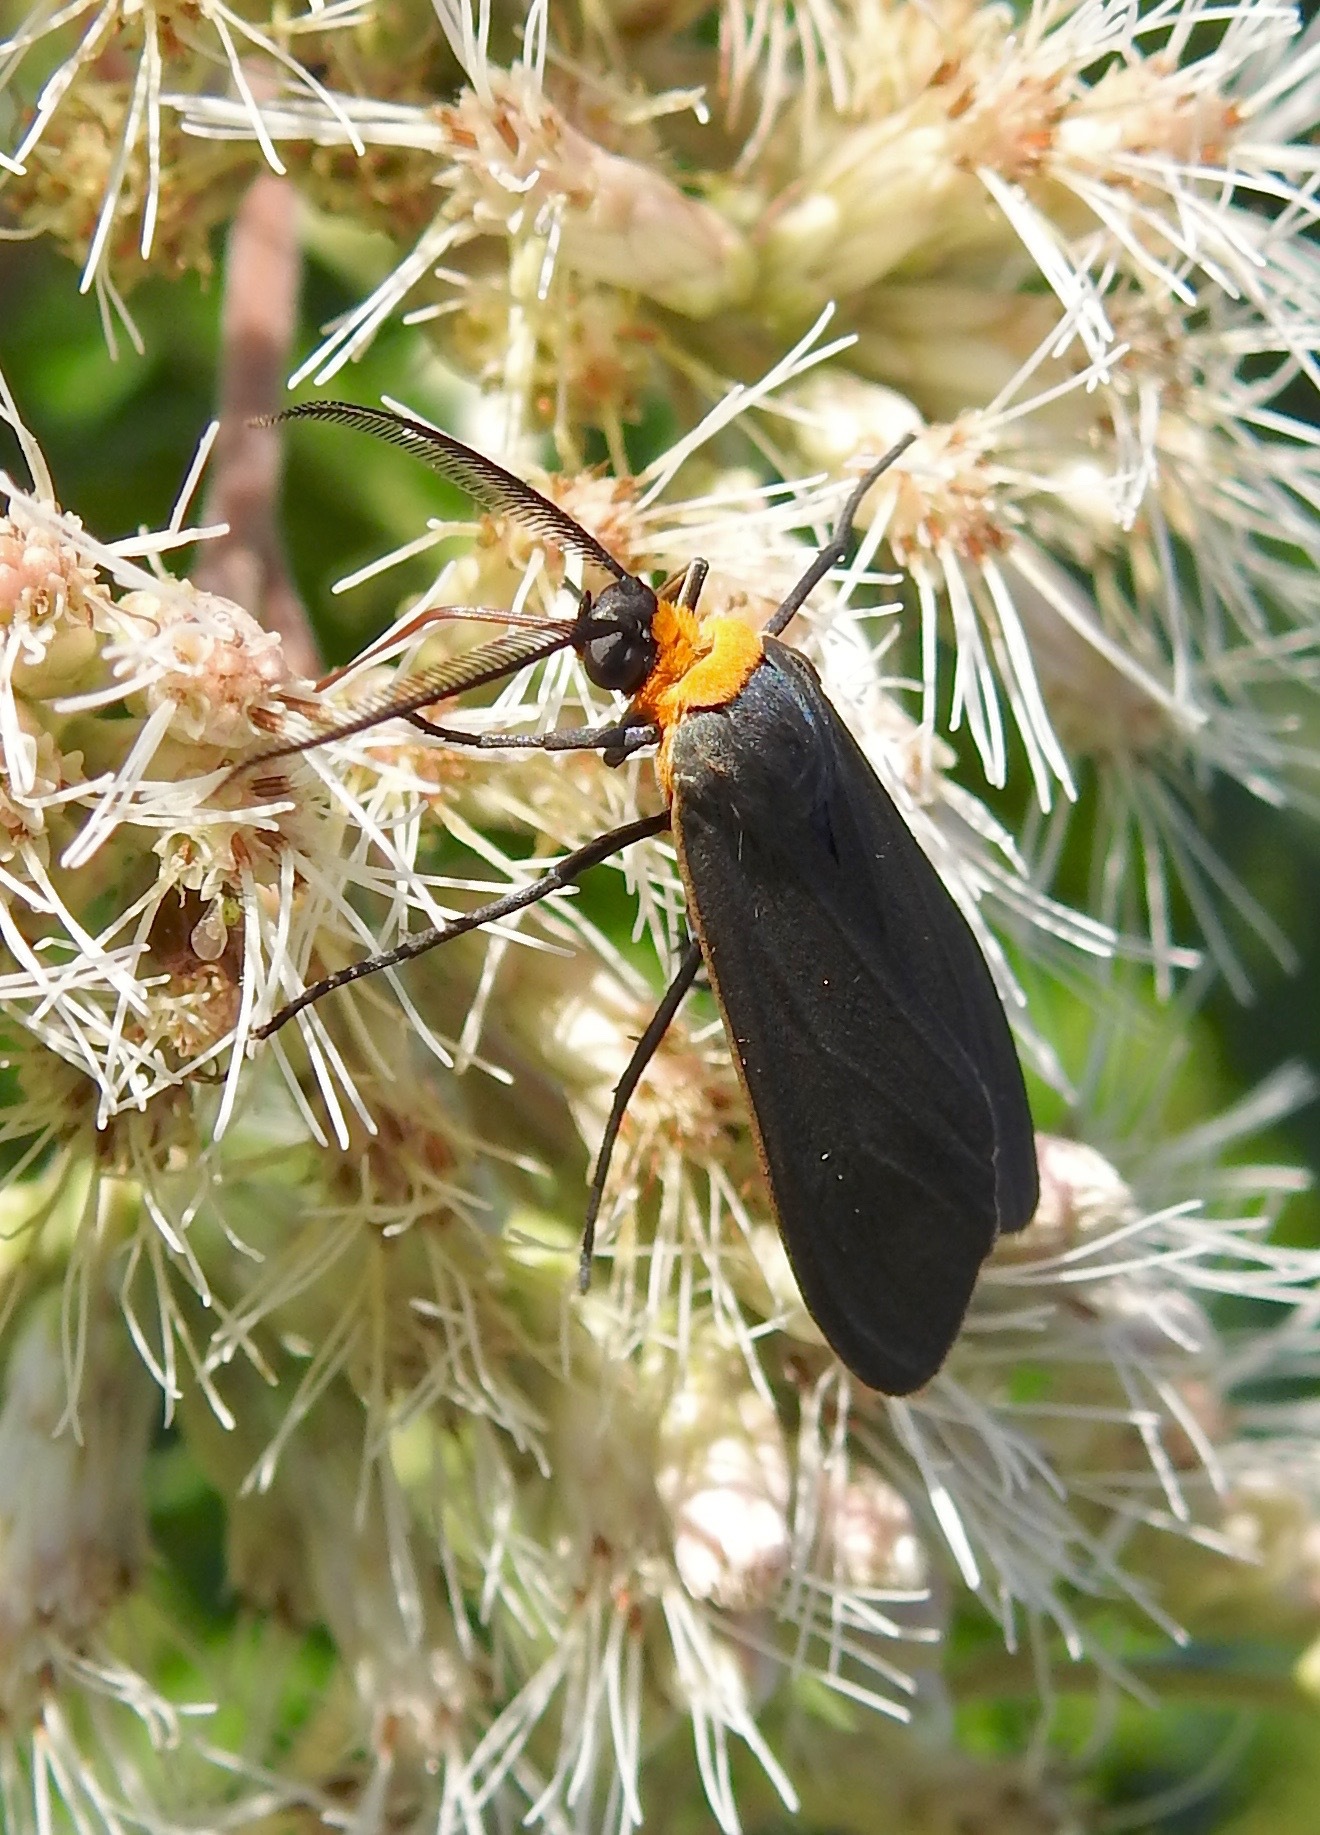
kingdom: Animalia
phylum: Arthropoda
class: Insecta
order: Lepidoptera
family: Erebidae
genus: Cisseps
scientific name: Cisseps fulvicollis
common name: Yellow-collared scape moth
